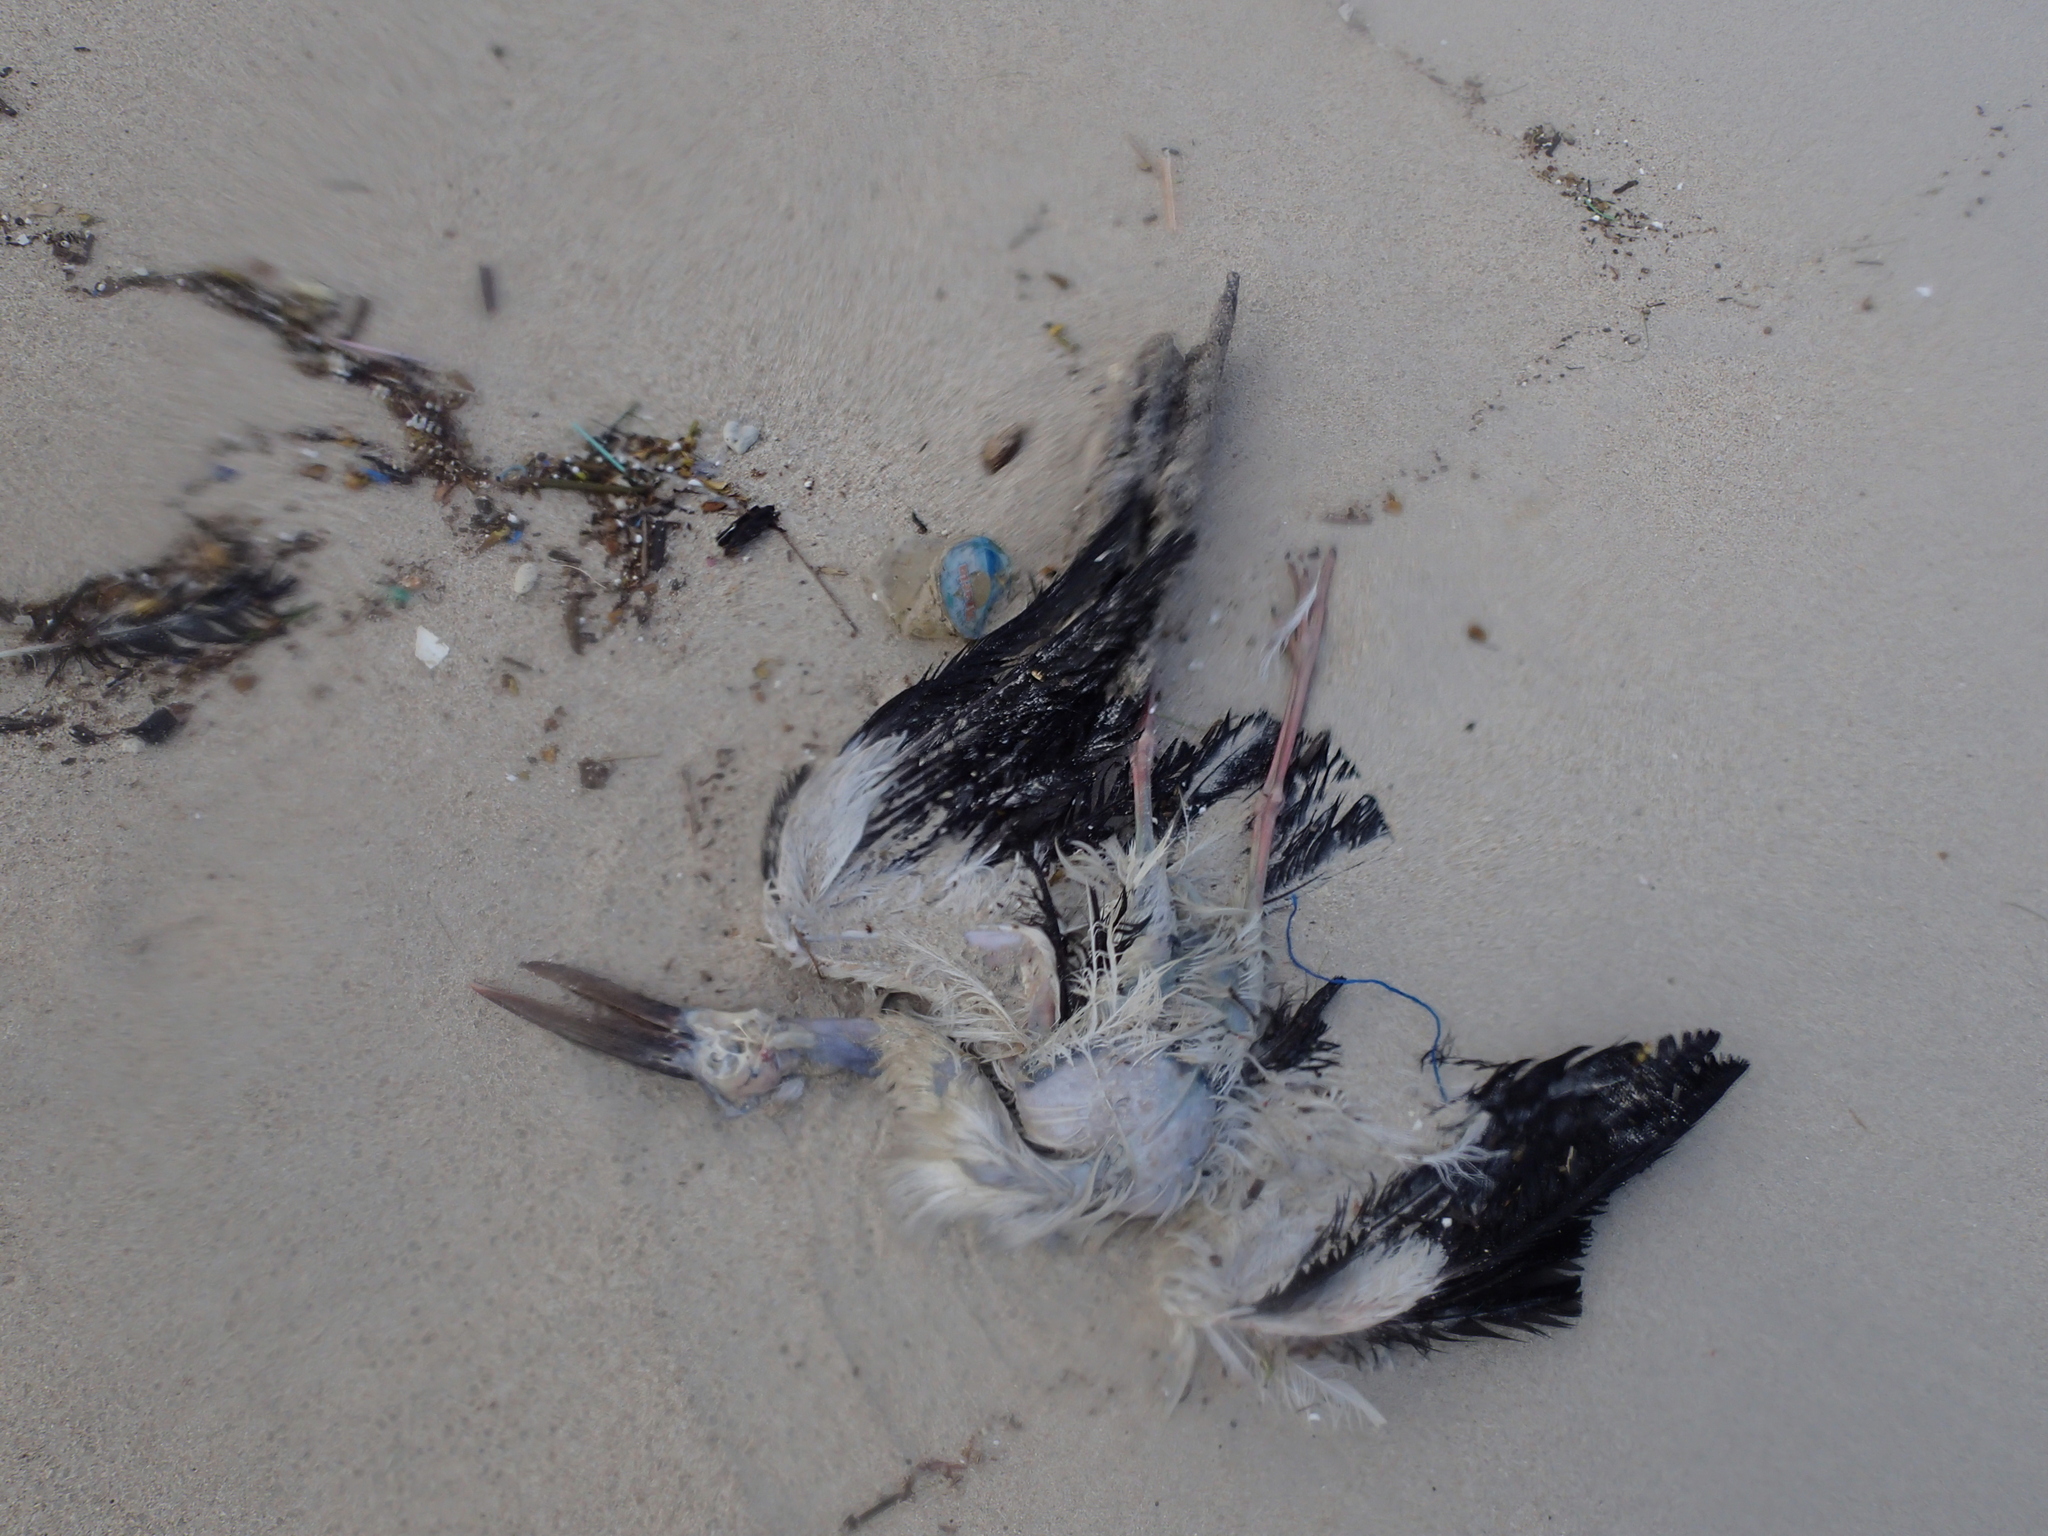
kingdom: Animalia
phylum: Chordata
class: Aves
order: Ciconiiformes
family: Ciconiidae
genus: Anastomus
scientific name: Anastomus oscitans
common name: Asian openbill
